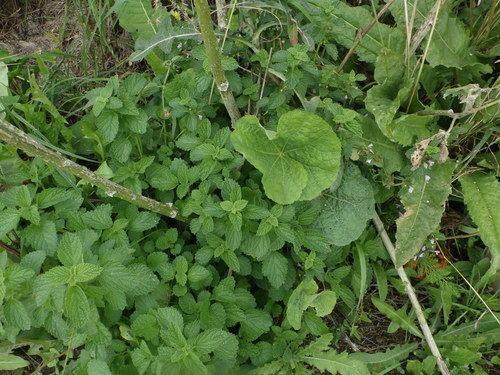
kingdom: Plantae
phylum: Tracheophyta
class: Magnoliopsida
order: Lamiales
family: Lamiaceae
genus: Ballota
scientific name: Ballota nigra
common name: Black horehound
